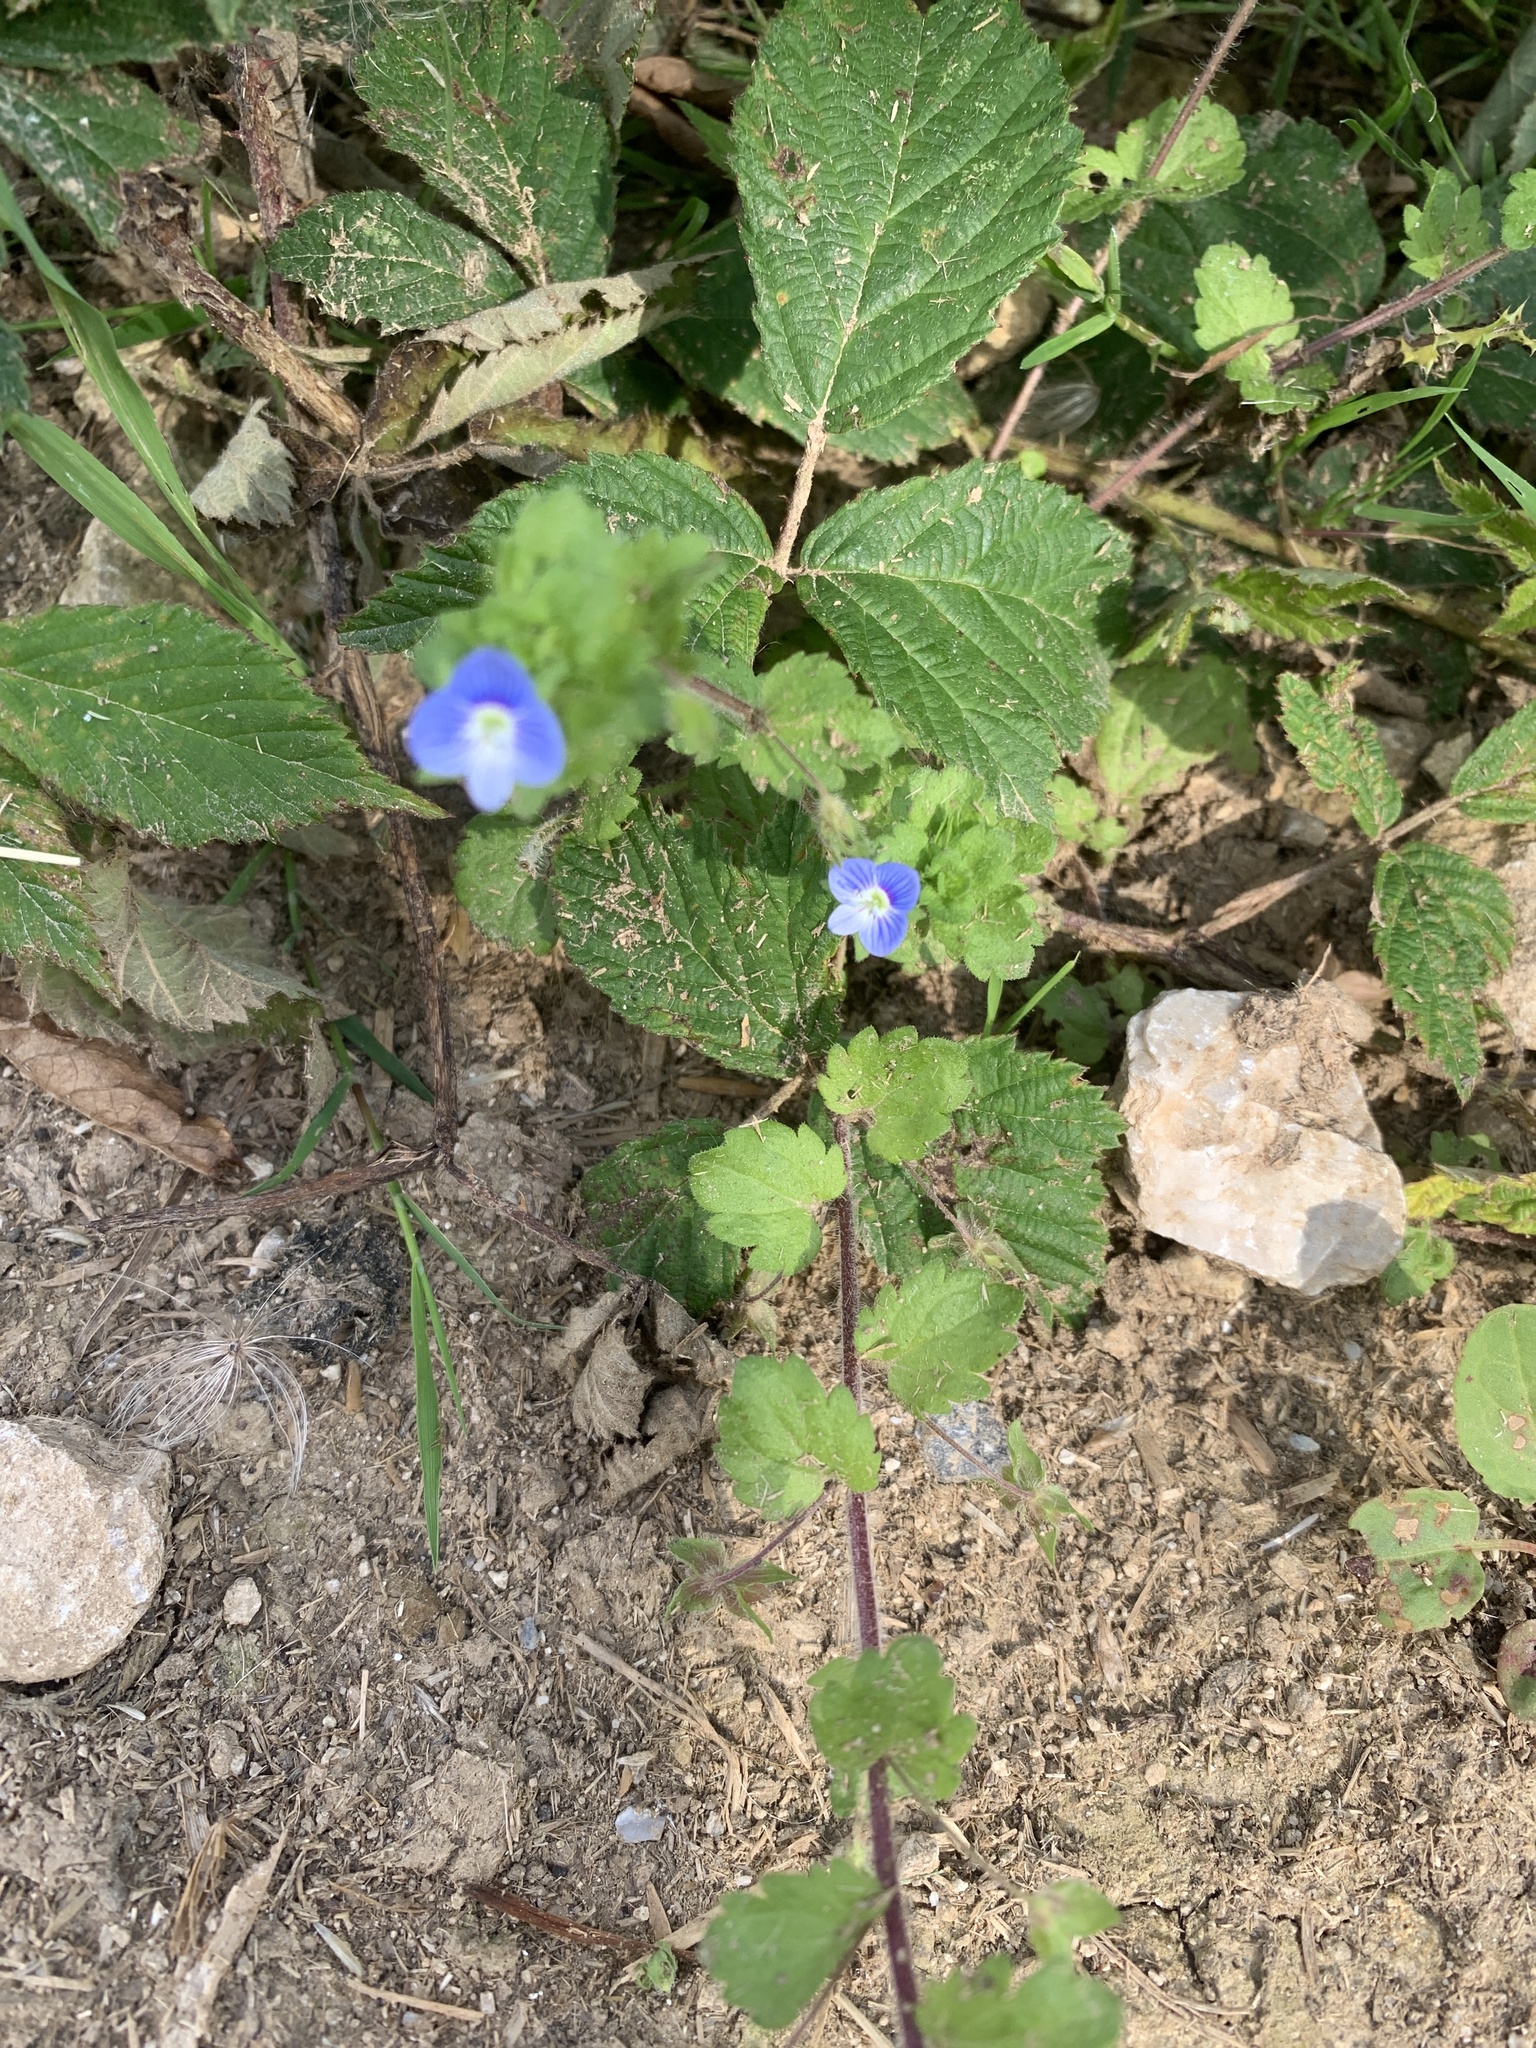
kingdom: Plantae
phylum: Tracheophyta
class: Magnoliopsida
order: Lamiales
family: Plantaginaceae
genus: Veronica
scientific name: Veronica persica
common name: Common field-speedwell
